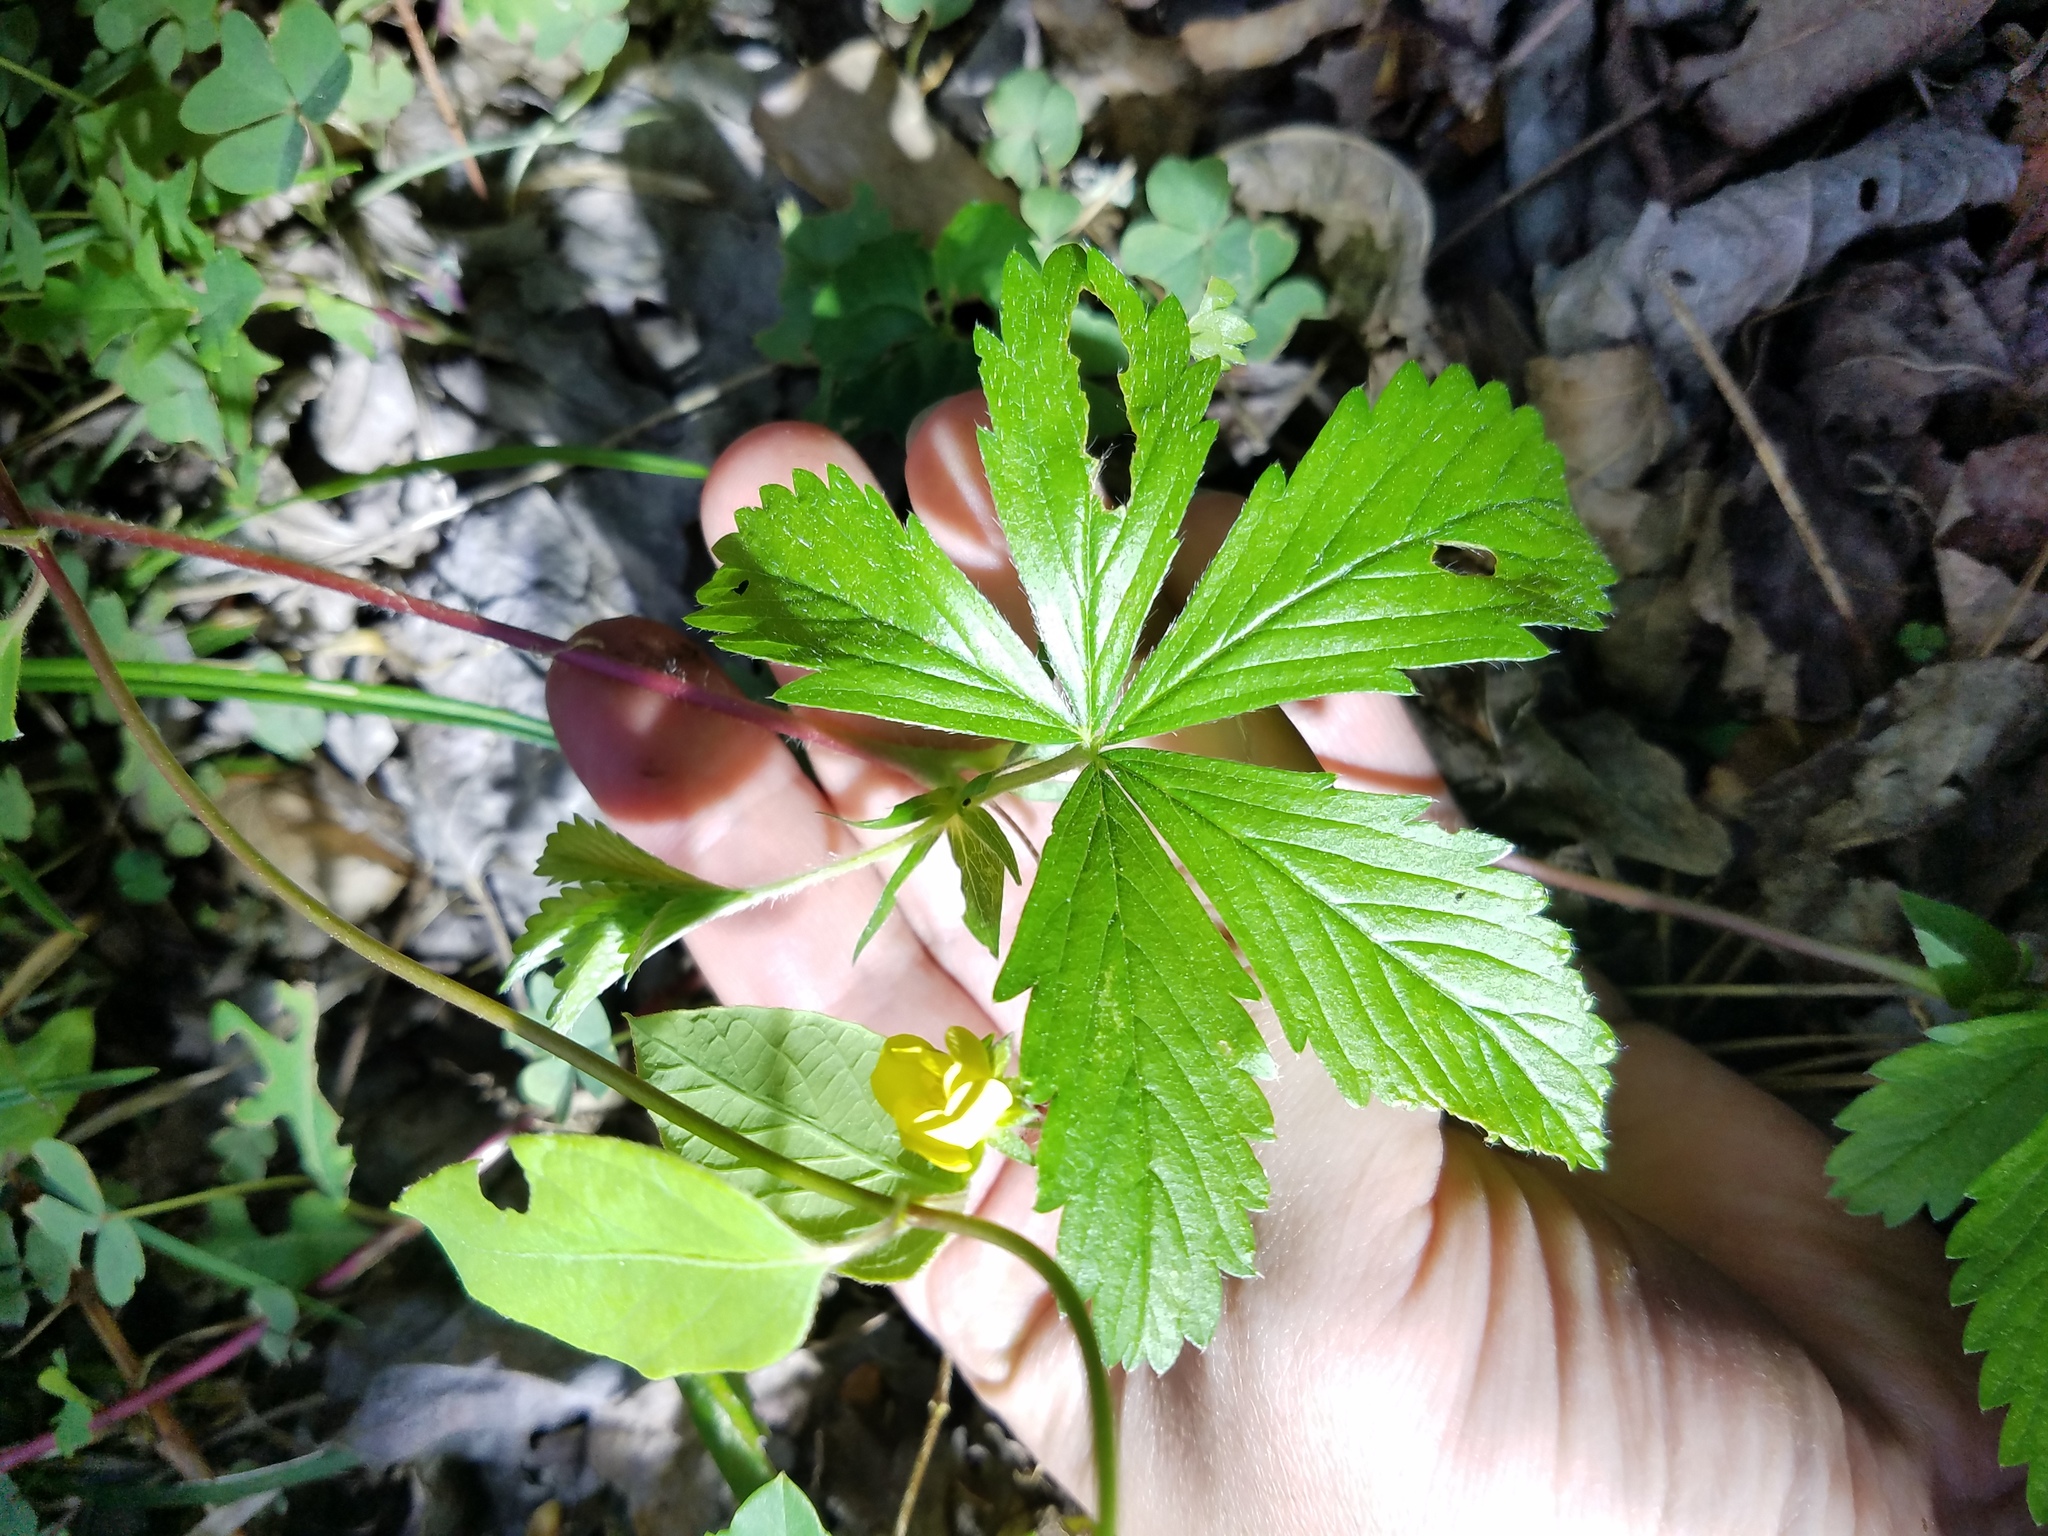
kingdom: Plantae
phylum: Tracheophyta
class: Magnoliopsida
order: Rosales
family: Rosaceae
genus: Potentilla
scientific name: Potentilla simplex
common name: Old field cinquefoil
